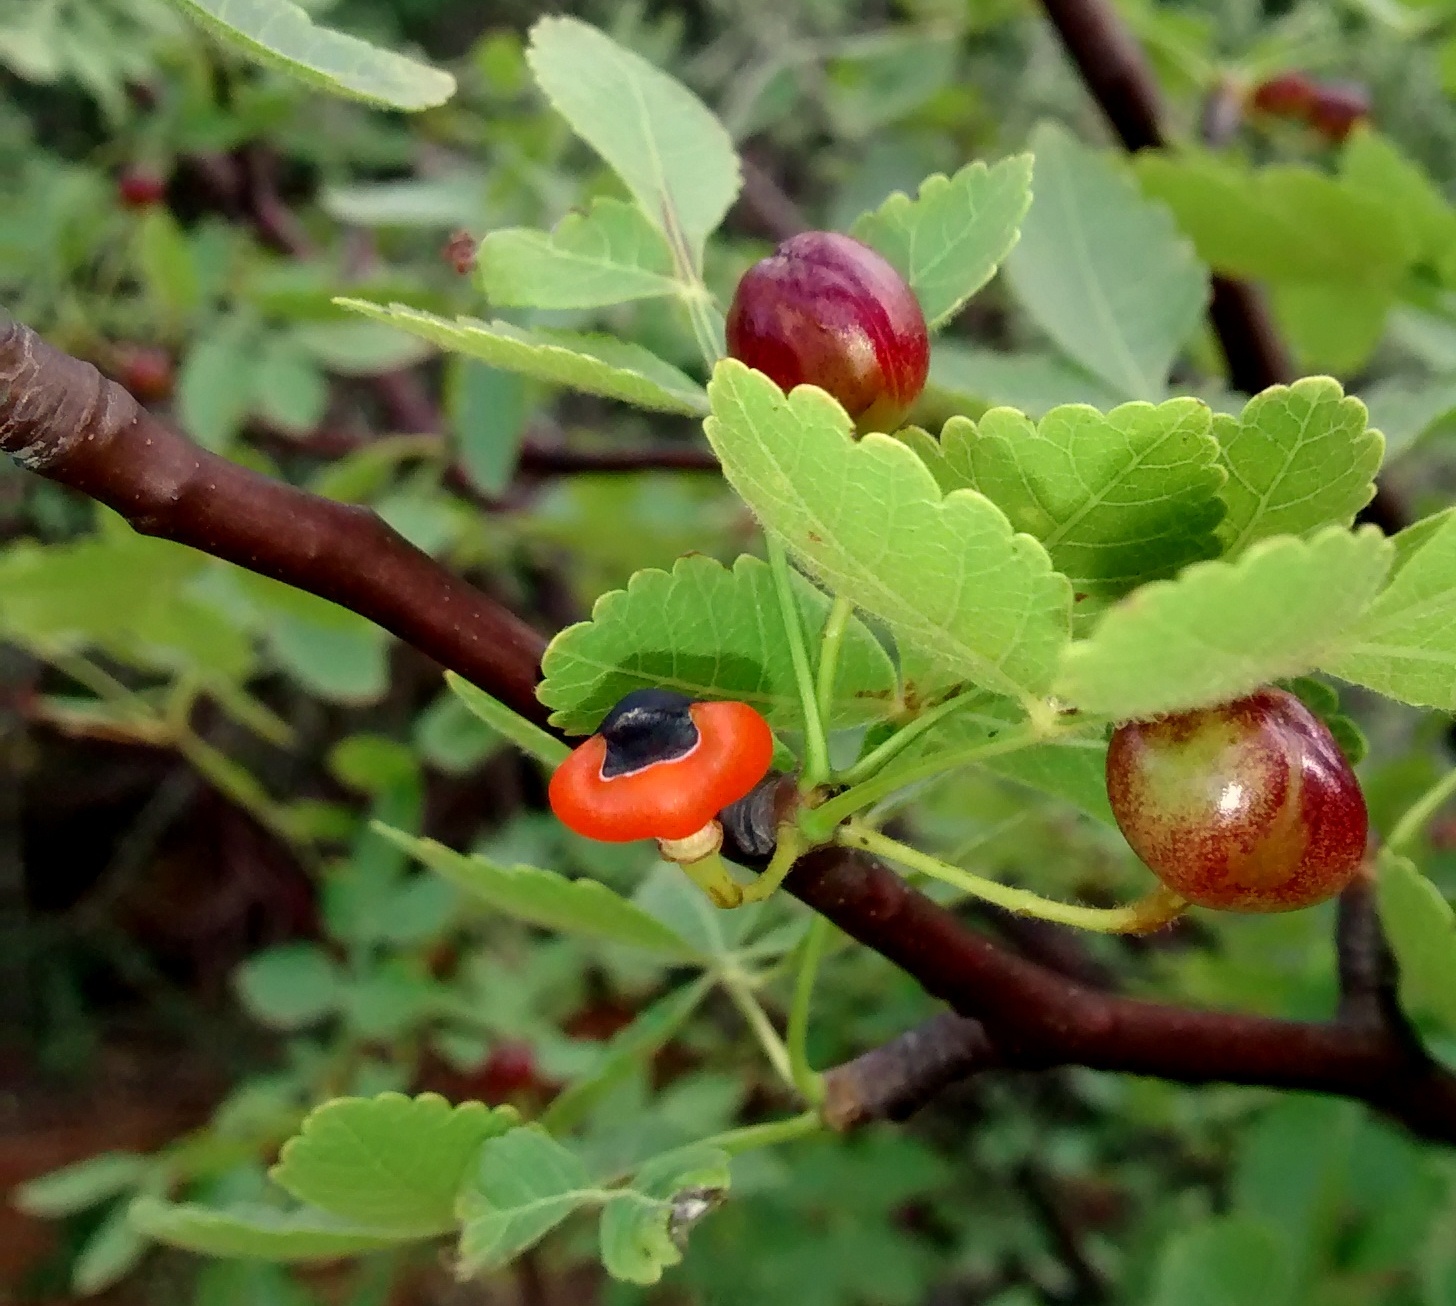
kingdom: Plantae
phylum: Tracheophyta
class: Magnoliopsida
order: Sapindales
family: Burseraceae
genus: Bursera
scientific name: Bursera linanoe
